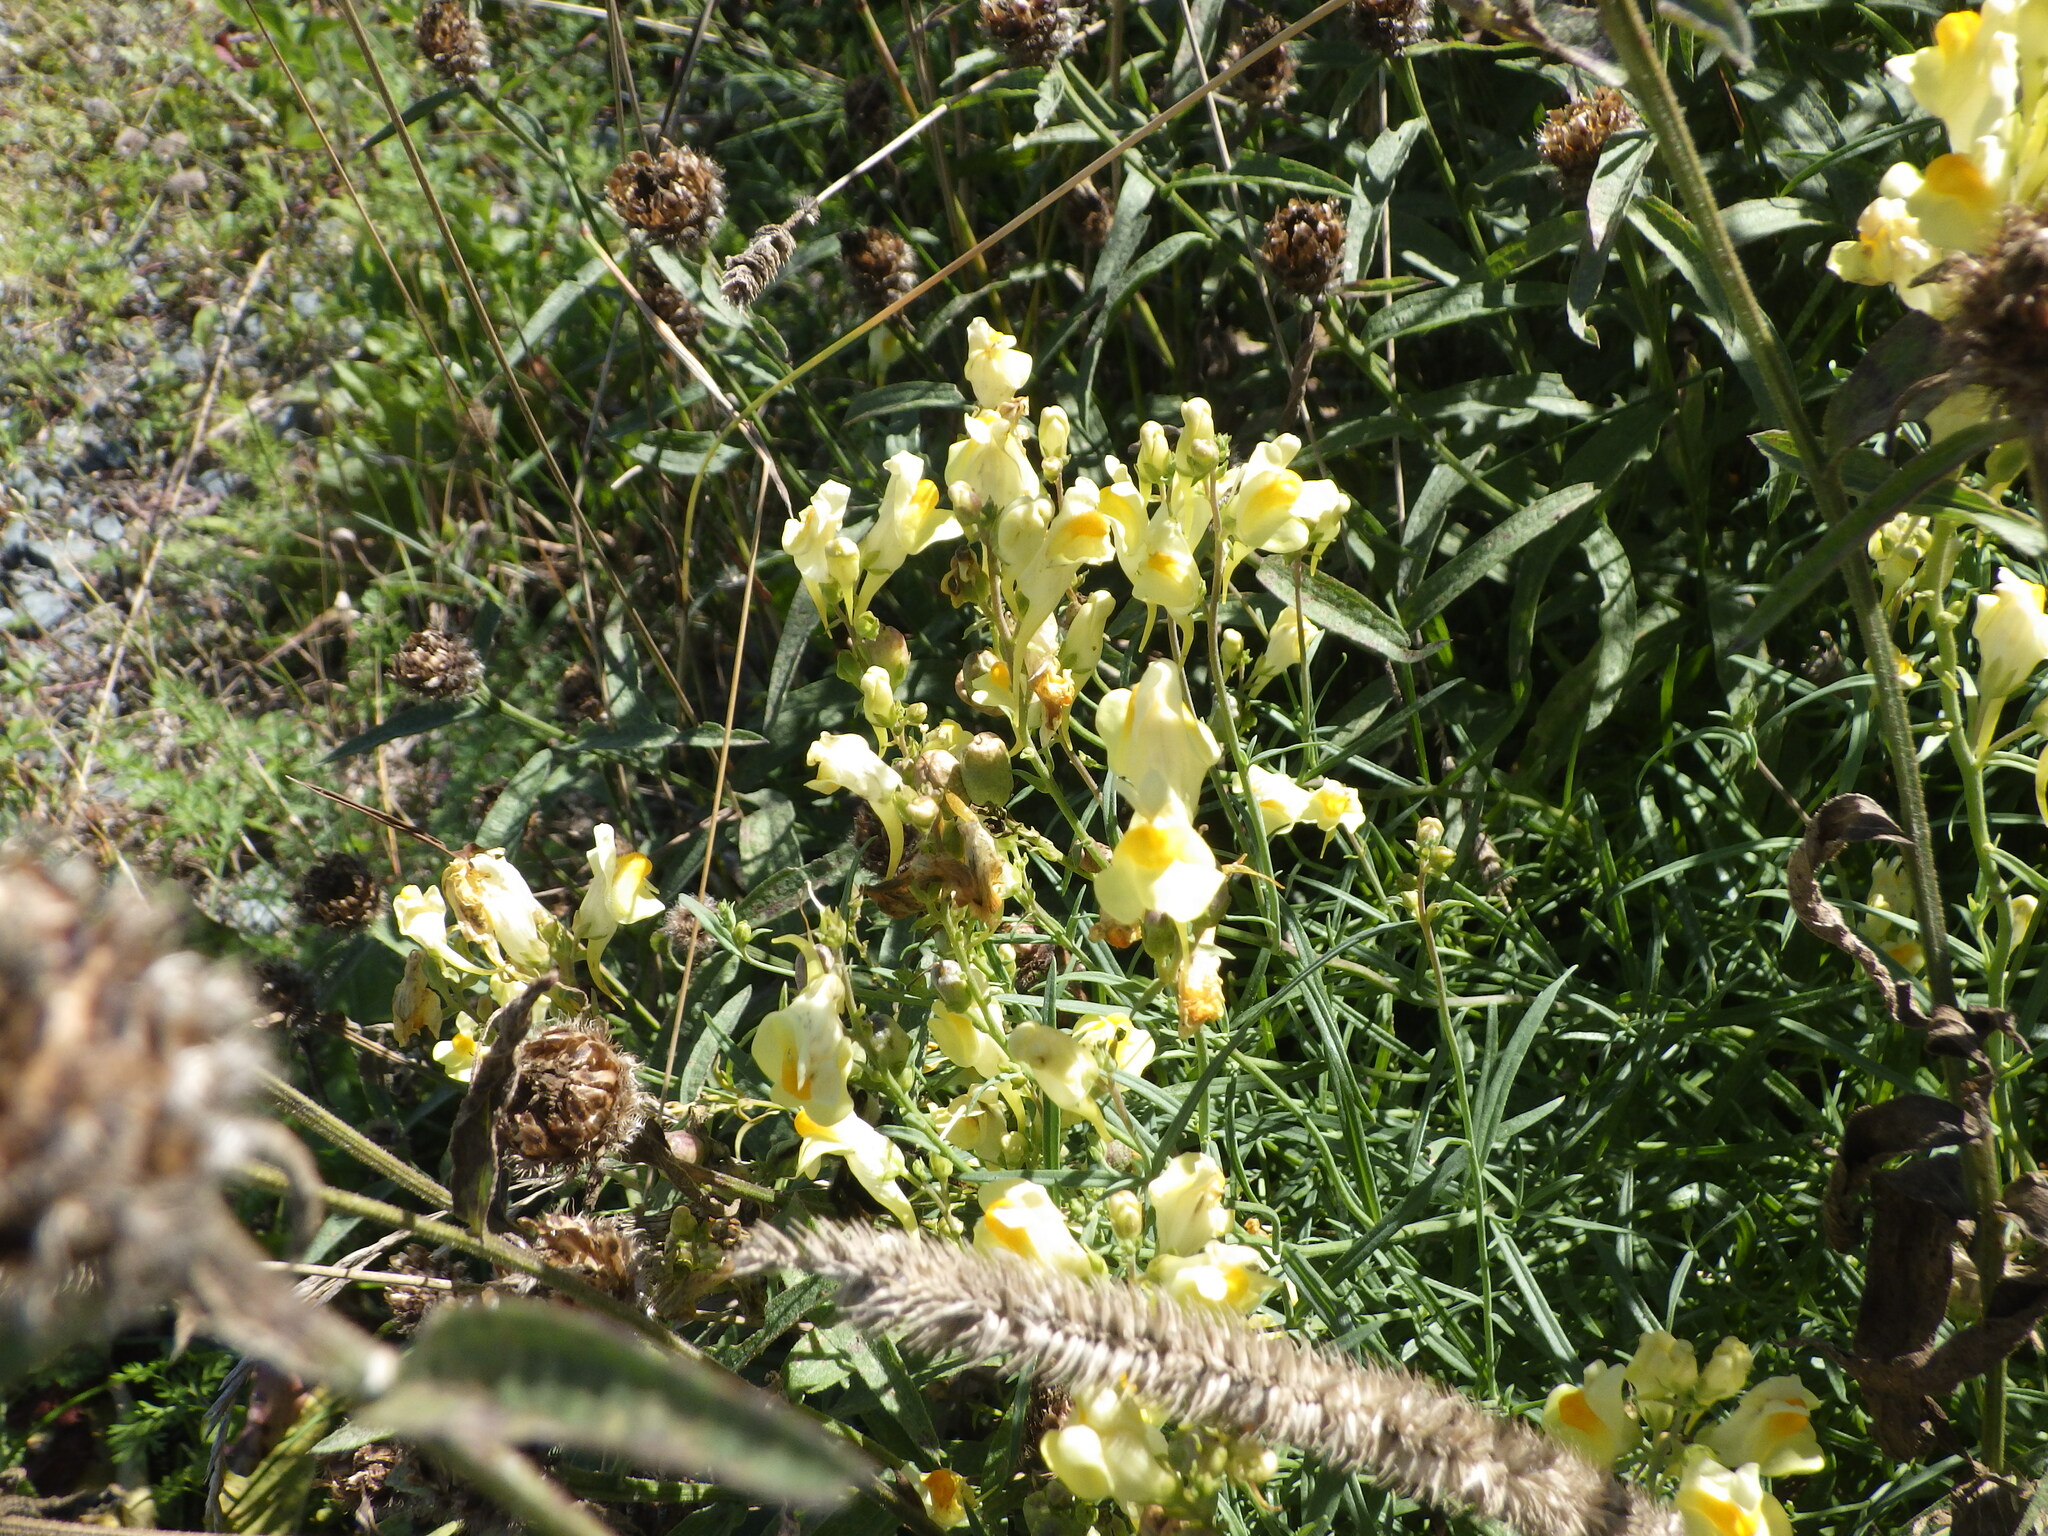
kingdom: Plantae
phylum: Tracheophyta
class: Magnoliopsida
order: Lamiales
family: Plantaginaceae
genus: Linaria
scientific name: Linaria vulgaris
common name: Butter and eggs
